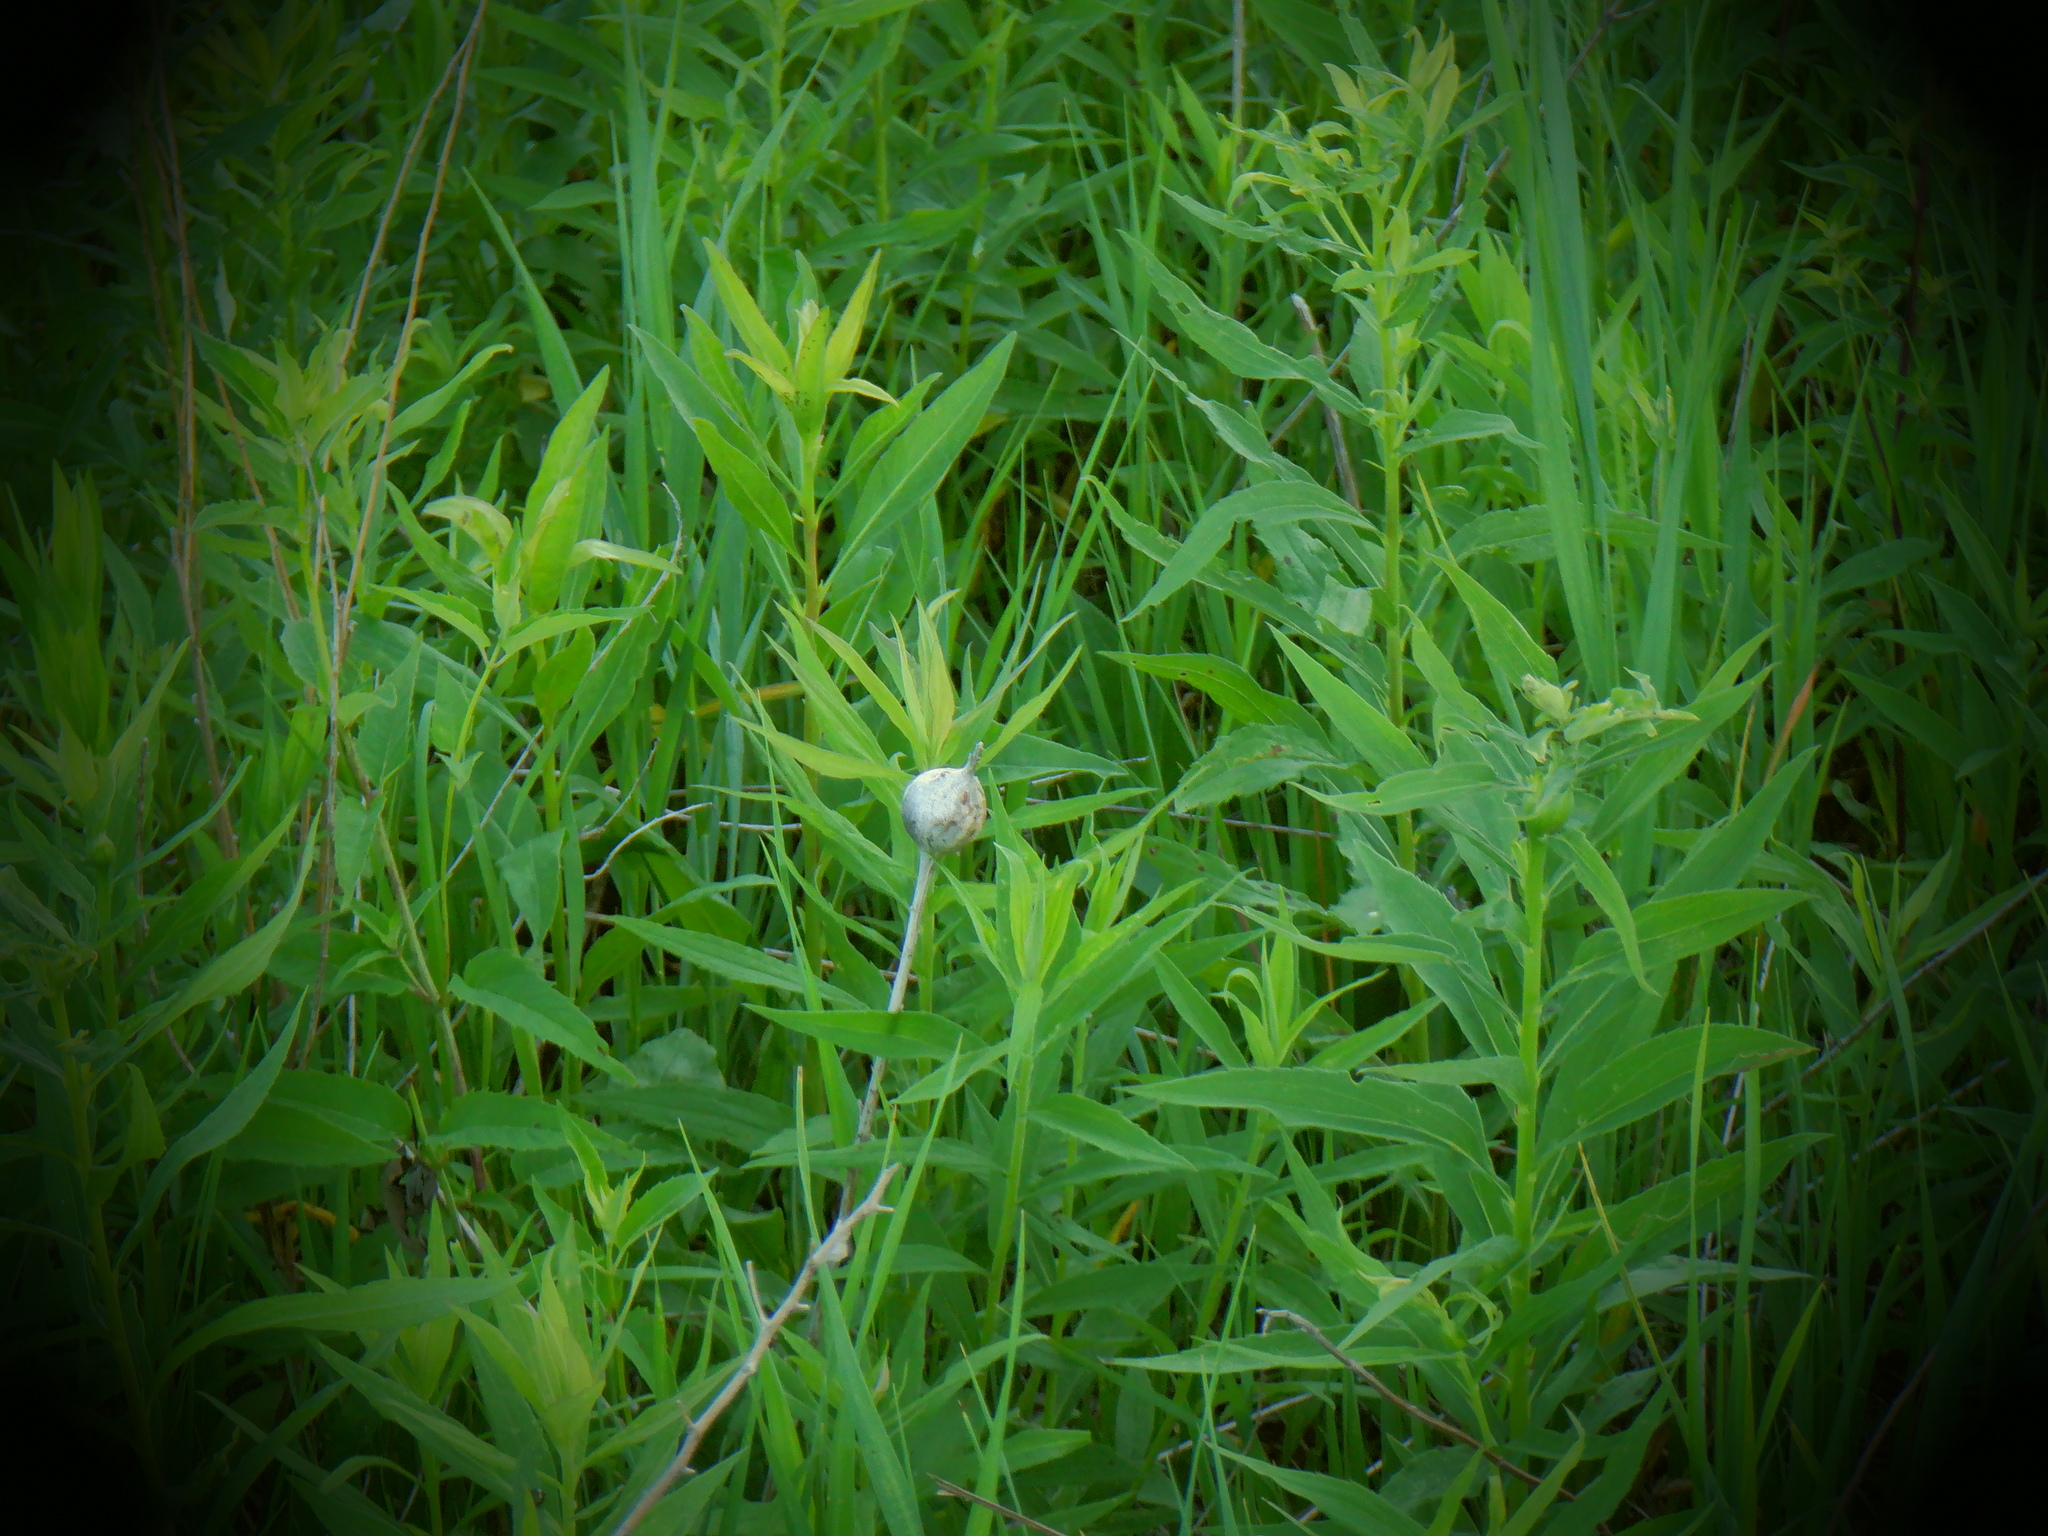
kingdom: Animalia
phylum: Arthropoda
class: Insecta
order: Diptera
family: Tephritidae
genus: Eurosta
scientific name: Eurosta solidaginis
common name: Goldenrod gall fly
